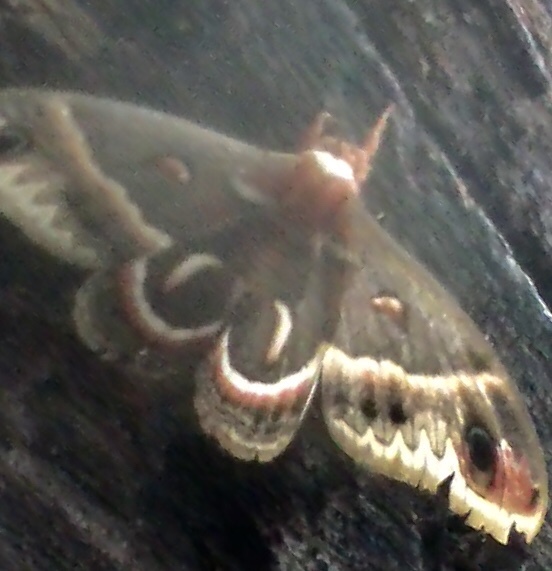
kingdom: Animalia
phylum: Arthropoda
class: Insecta
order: Lepidoptera
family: Saturniidae
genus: Hyalophora
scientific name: Hyalophora cecropia
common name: Cecropia silkmoth
